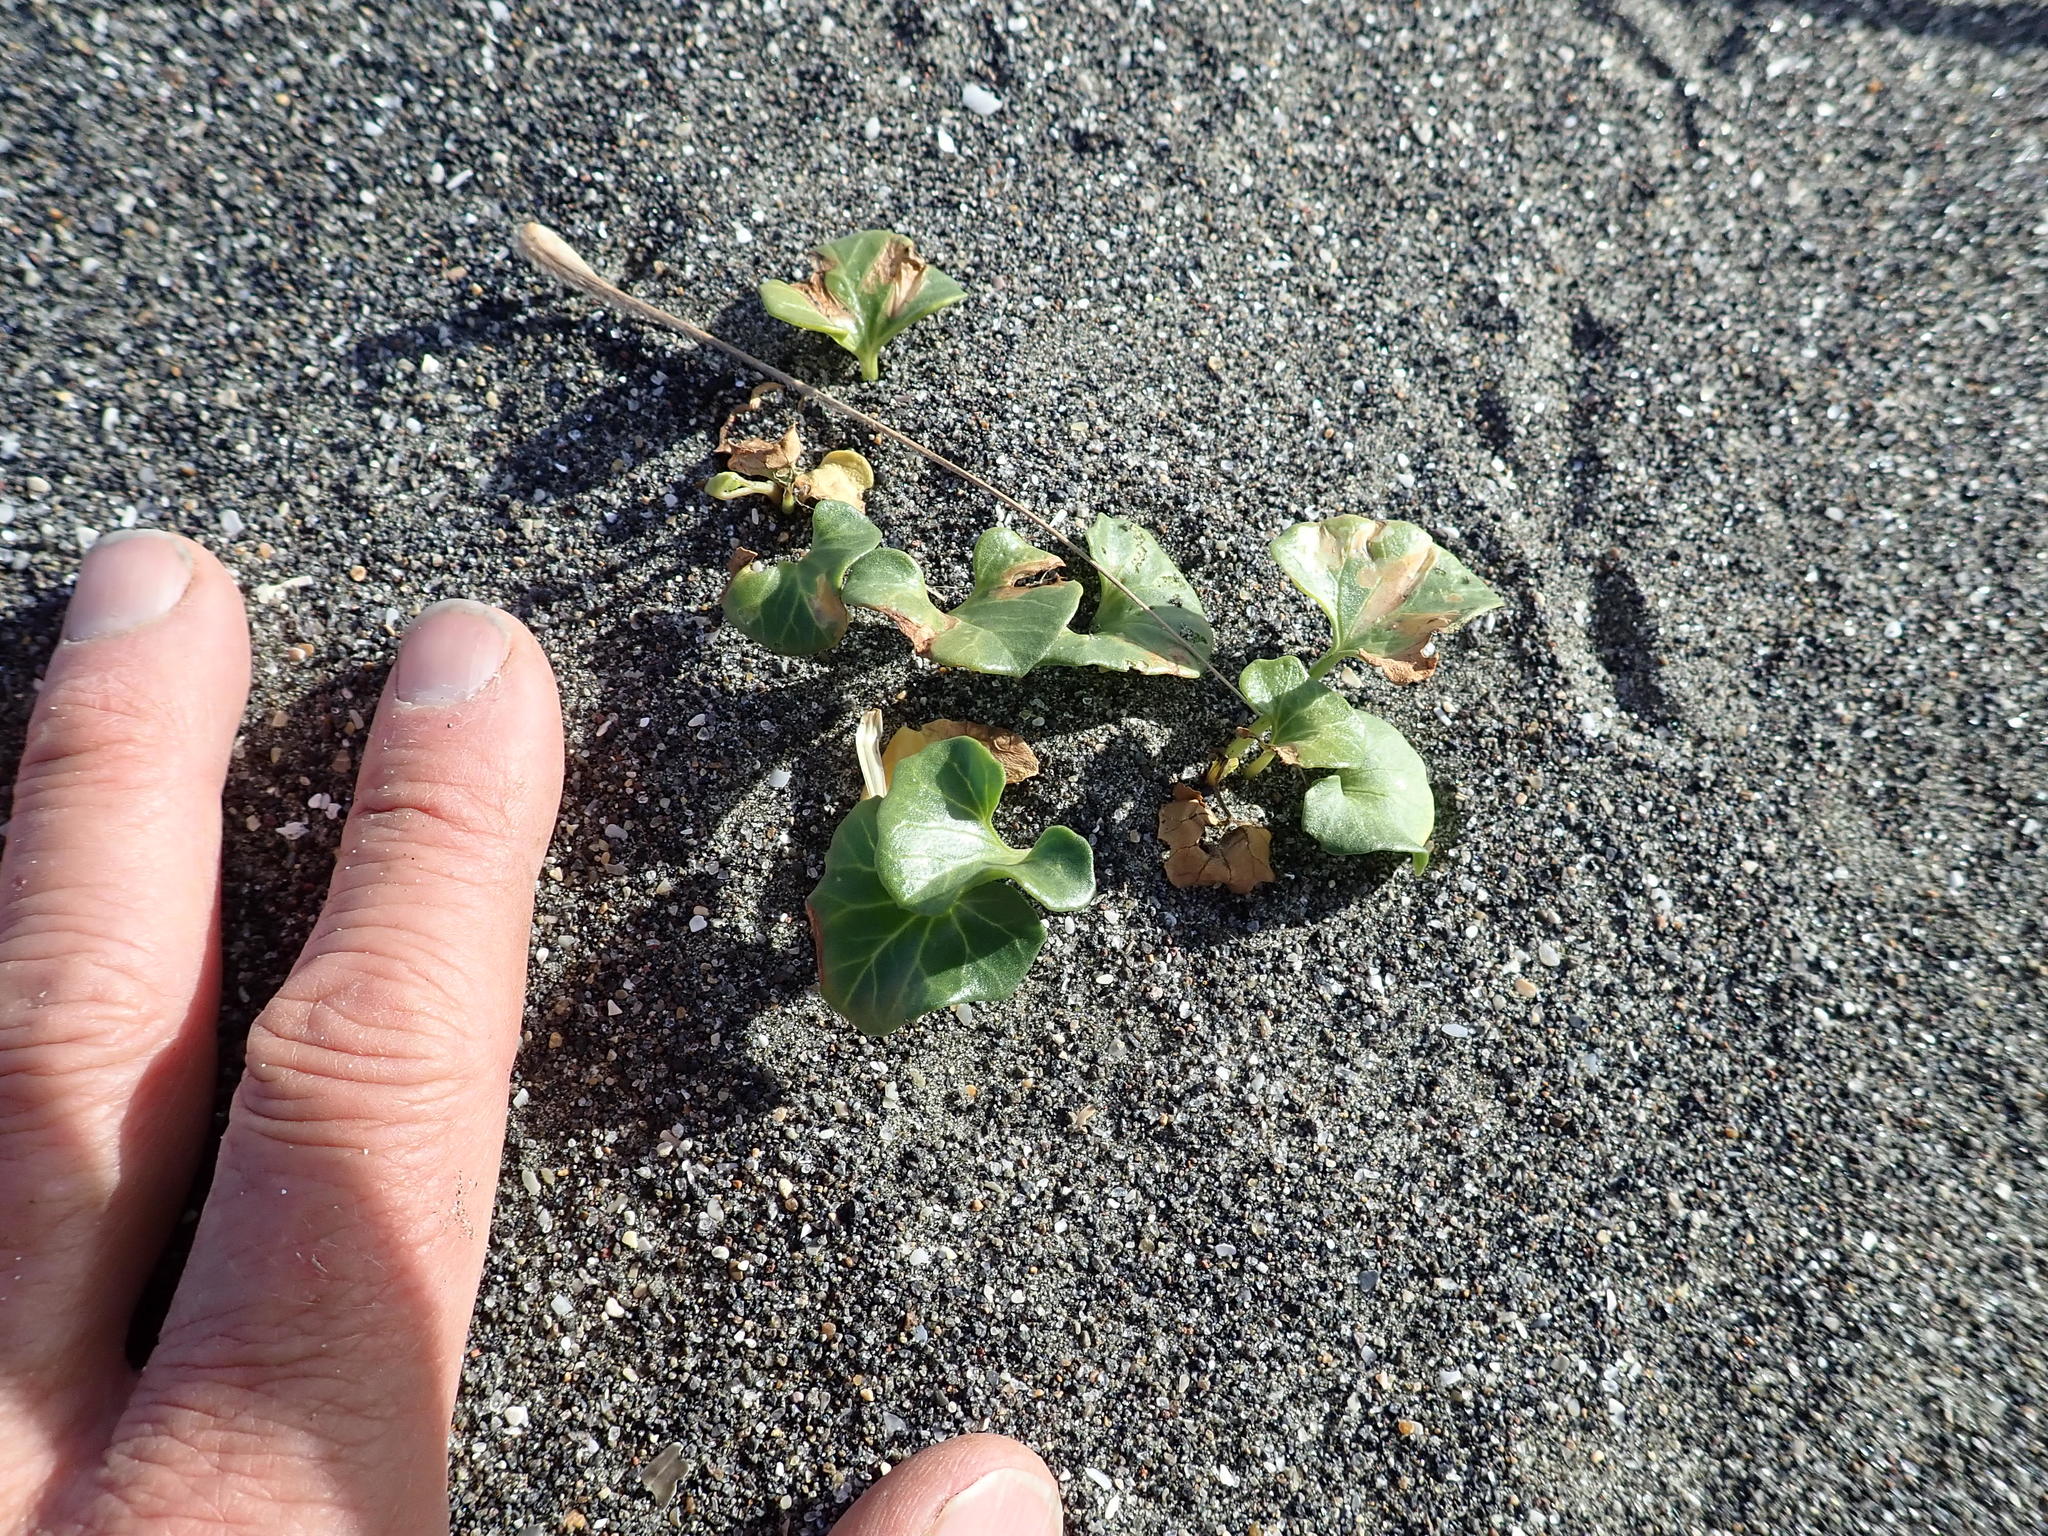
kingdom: Plantae
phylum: Tracheophyta
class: Magnoliopsida
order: Solanales
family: Convolvulaceae
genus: Calystegia
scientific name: Calystegia soldanella
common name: Sea bindweed
